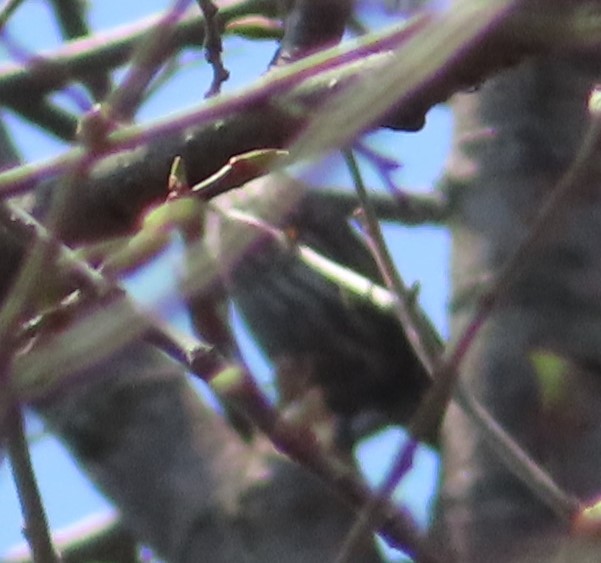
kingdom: Animalia
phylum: Chordata
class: Aves
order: Passeriformes
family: Icteridae
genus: Agelaius
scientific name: Agelaius phoeniceus
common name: Red-winged blackbird
